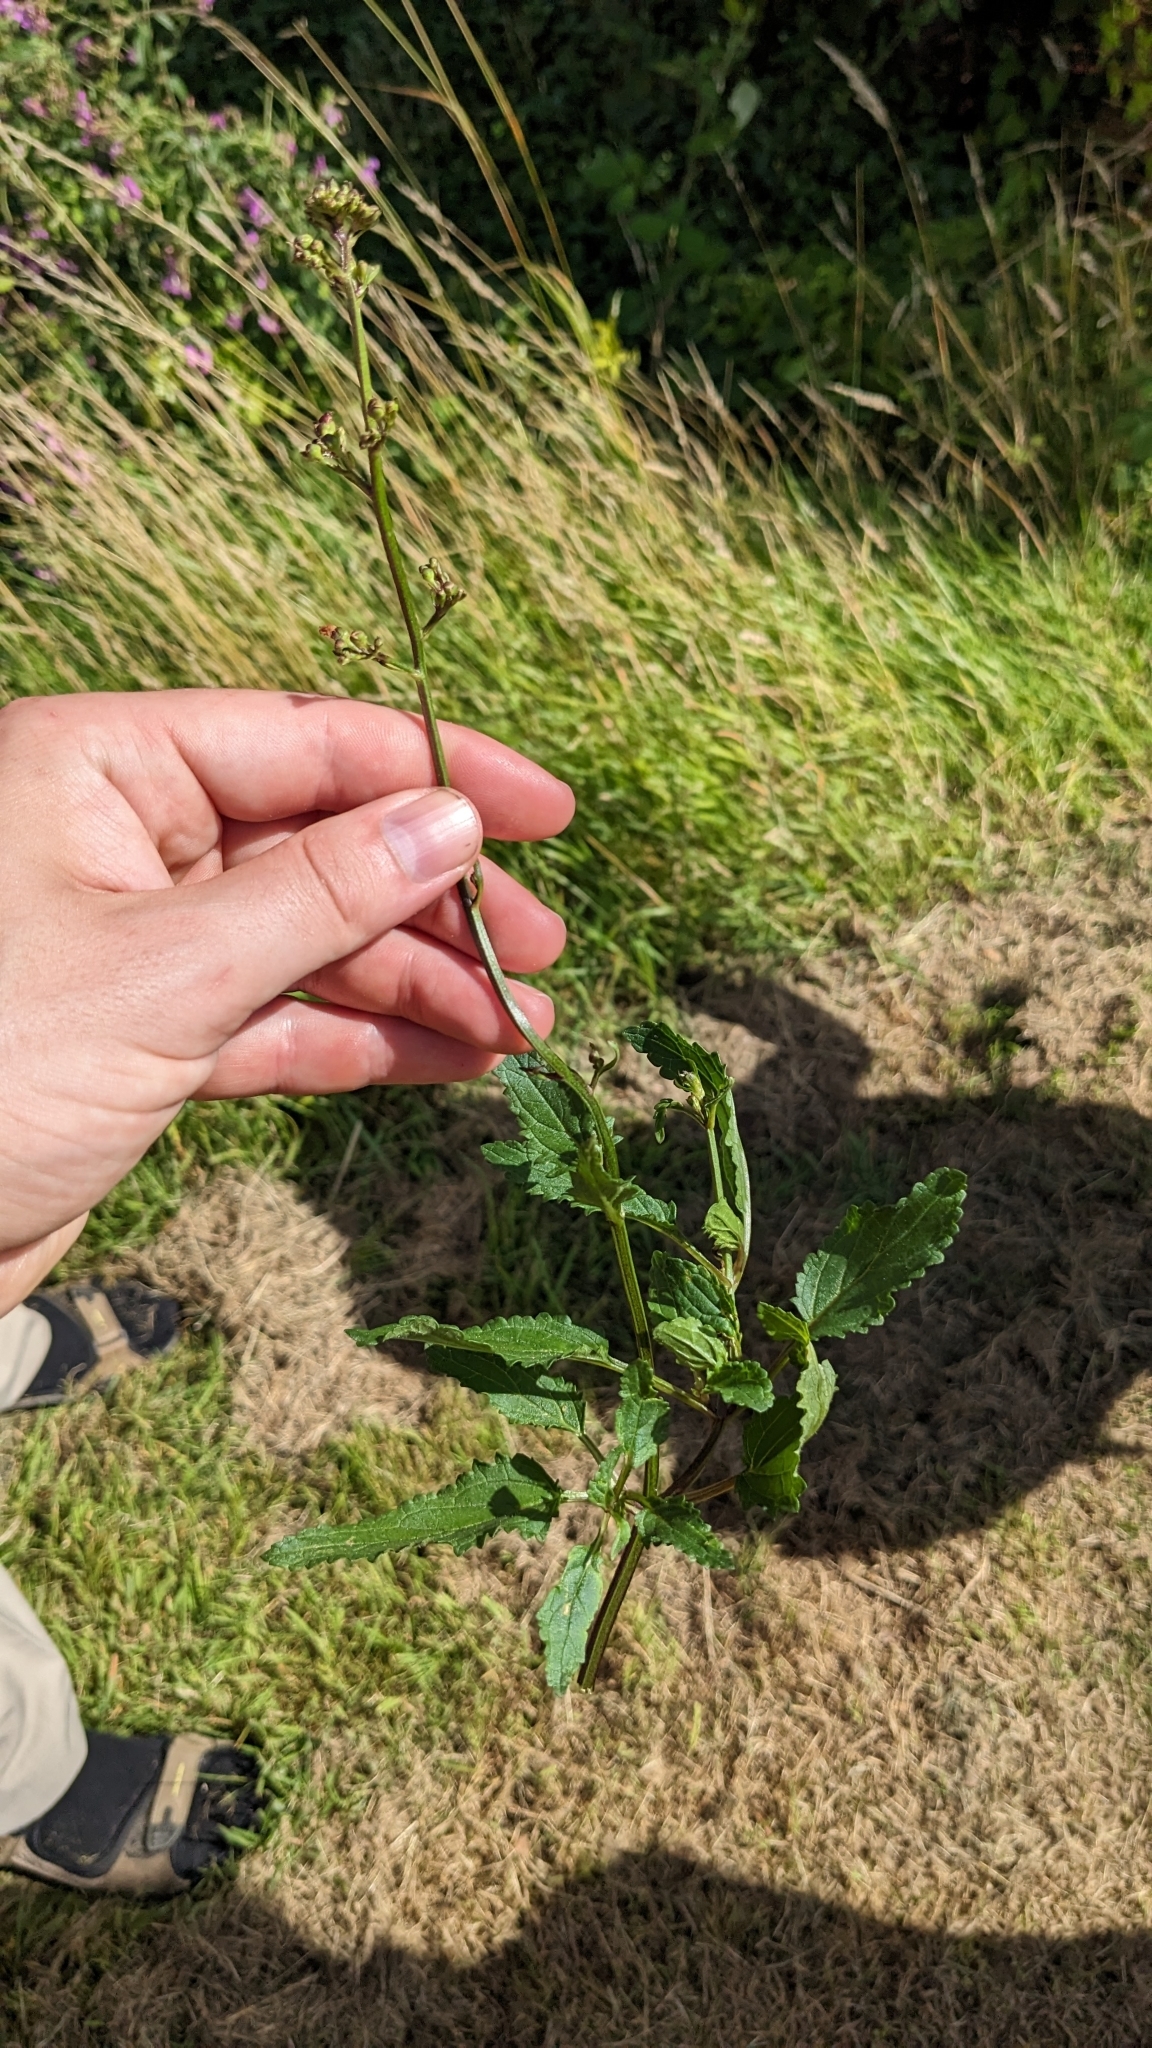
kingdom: Plantae
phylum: Tracheophyta
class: Magnoliopsida
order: Lamiales
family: Scrophulariaceae
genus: Scrophularia
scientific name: Scrophularia auriculata
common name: Water betony
